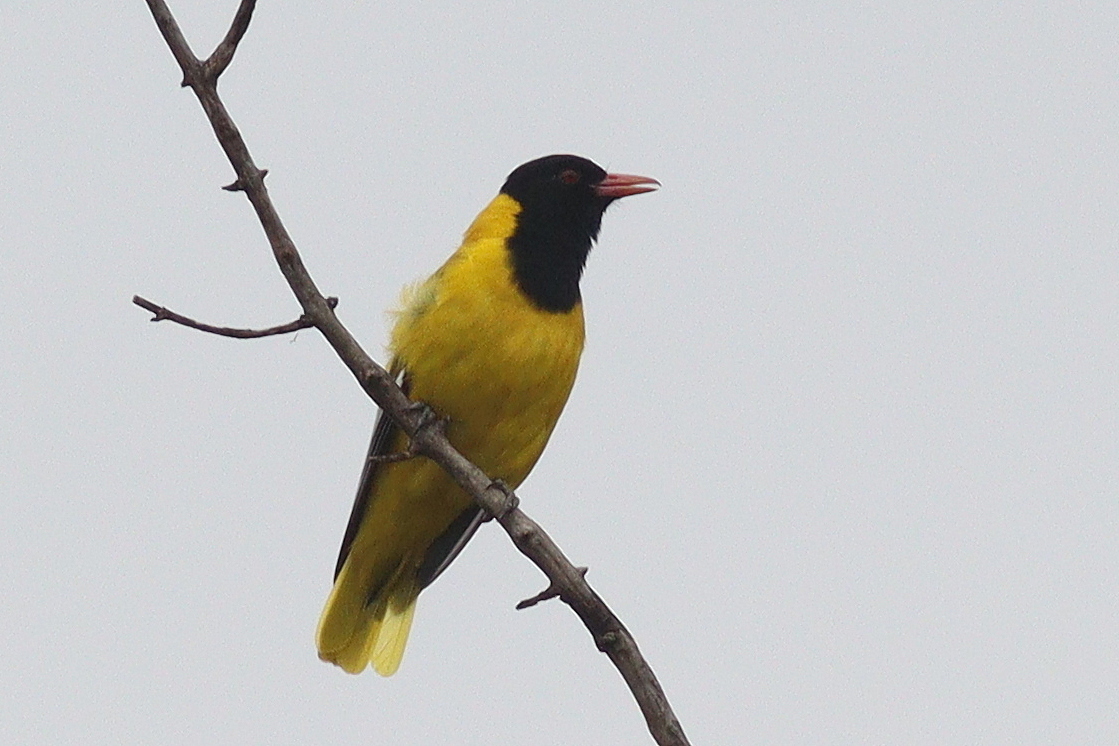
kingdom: Animalia
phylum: Chordata
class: Aves
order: Passeriformes
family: Oriolidae
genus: Oriolus
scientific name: Oriolus larvatus
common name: Black-headed oriole
